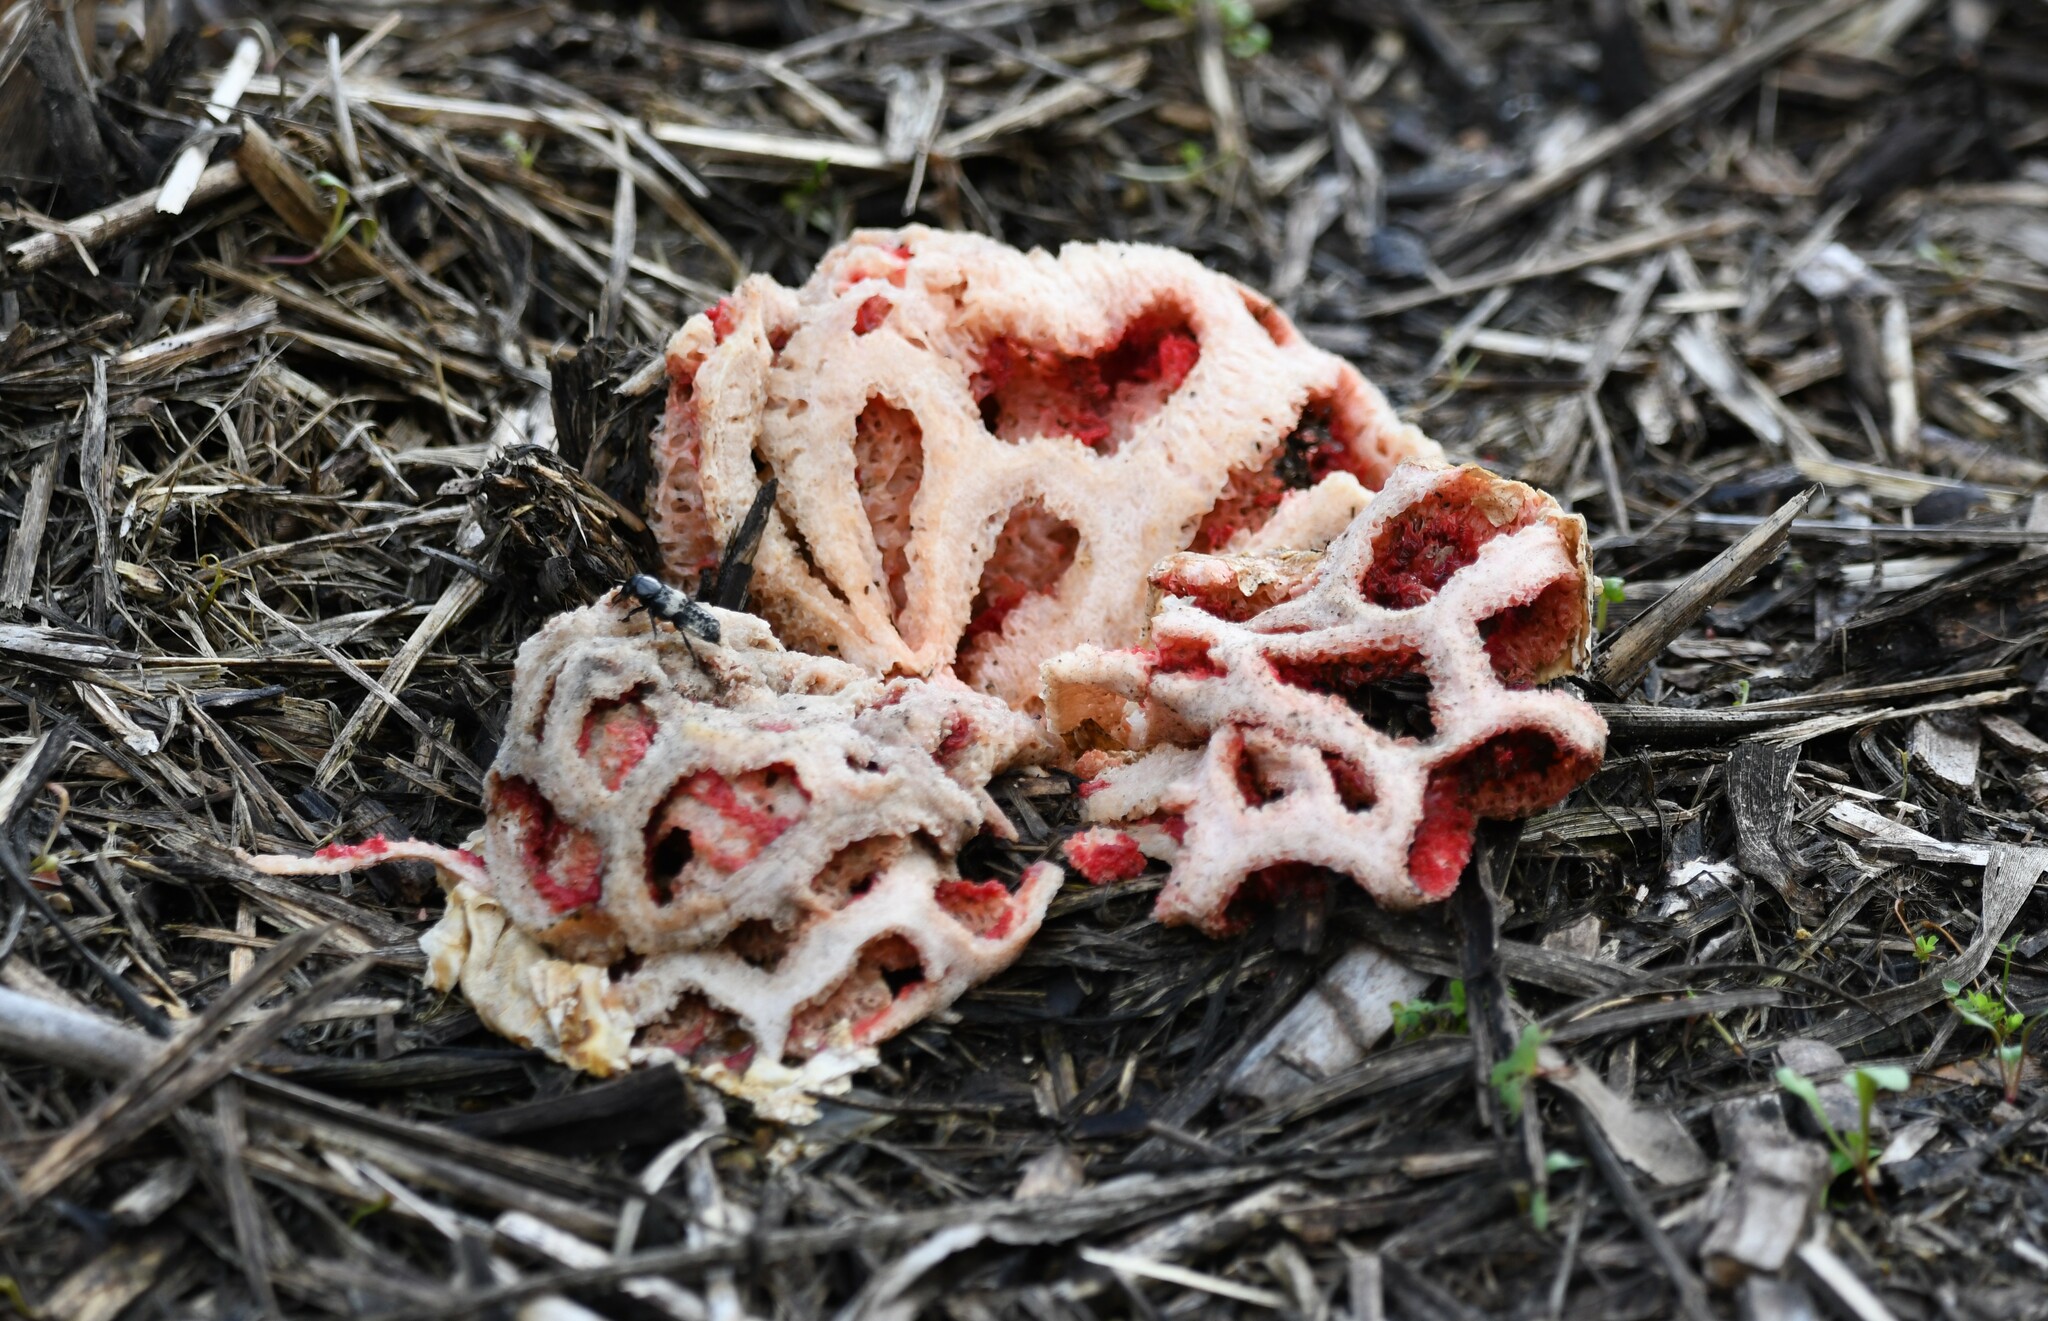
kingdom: Fungi
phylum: Basidiomycota
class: Agaricomycetes
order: Phallales
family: Phallaceae
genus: Clathrus
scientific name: Clathrus ruber
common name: Red cage
